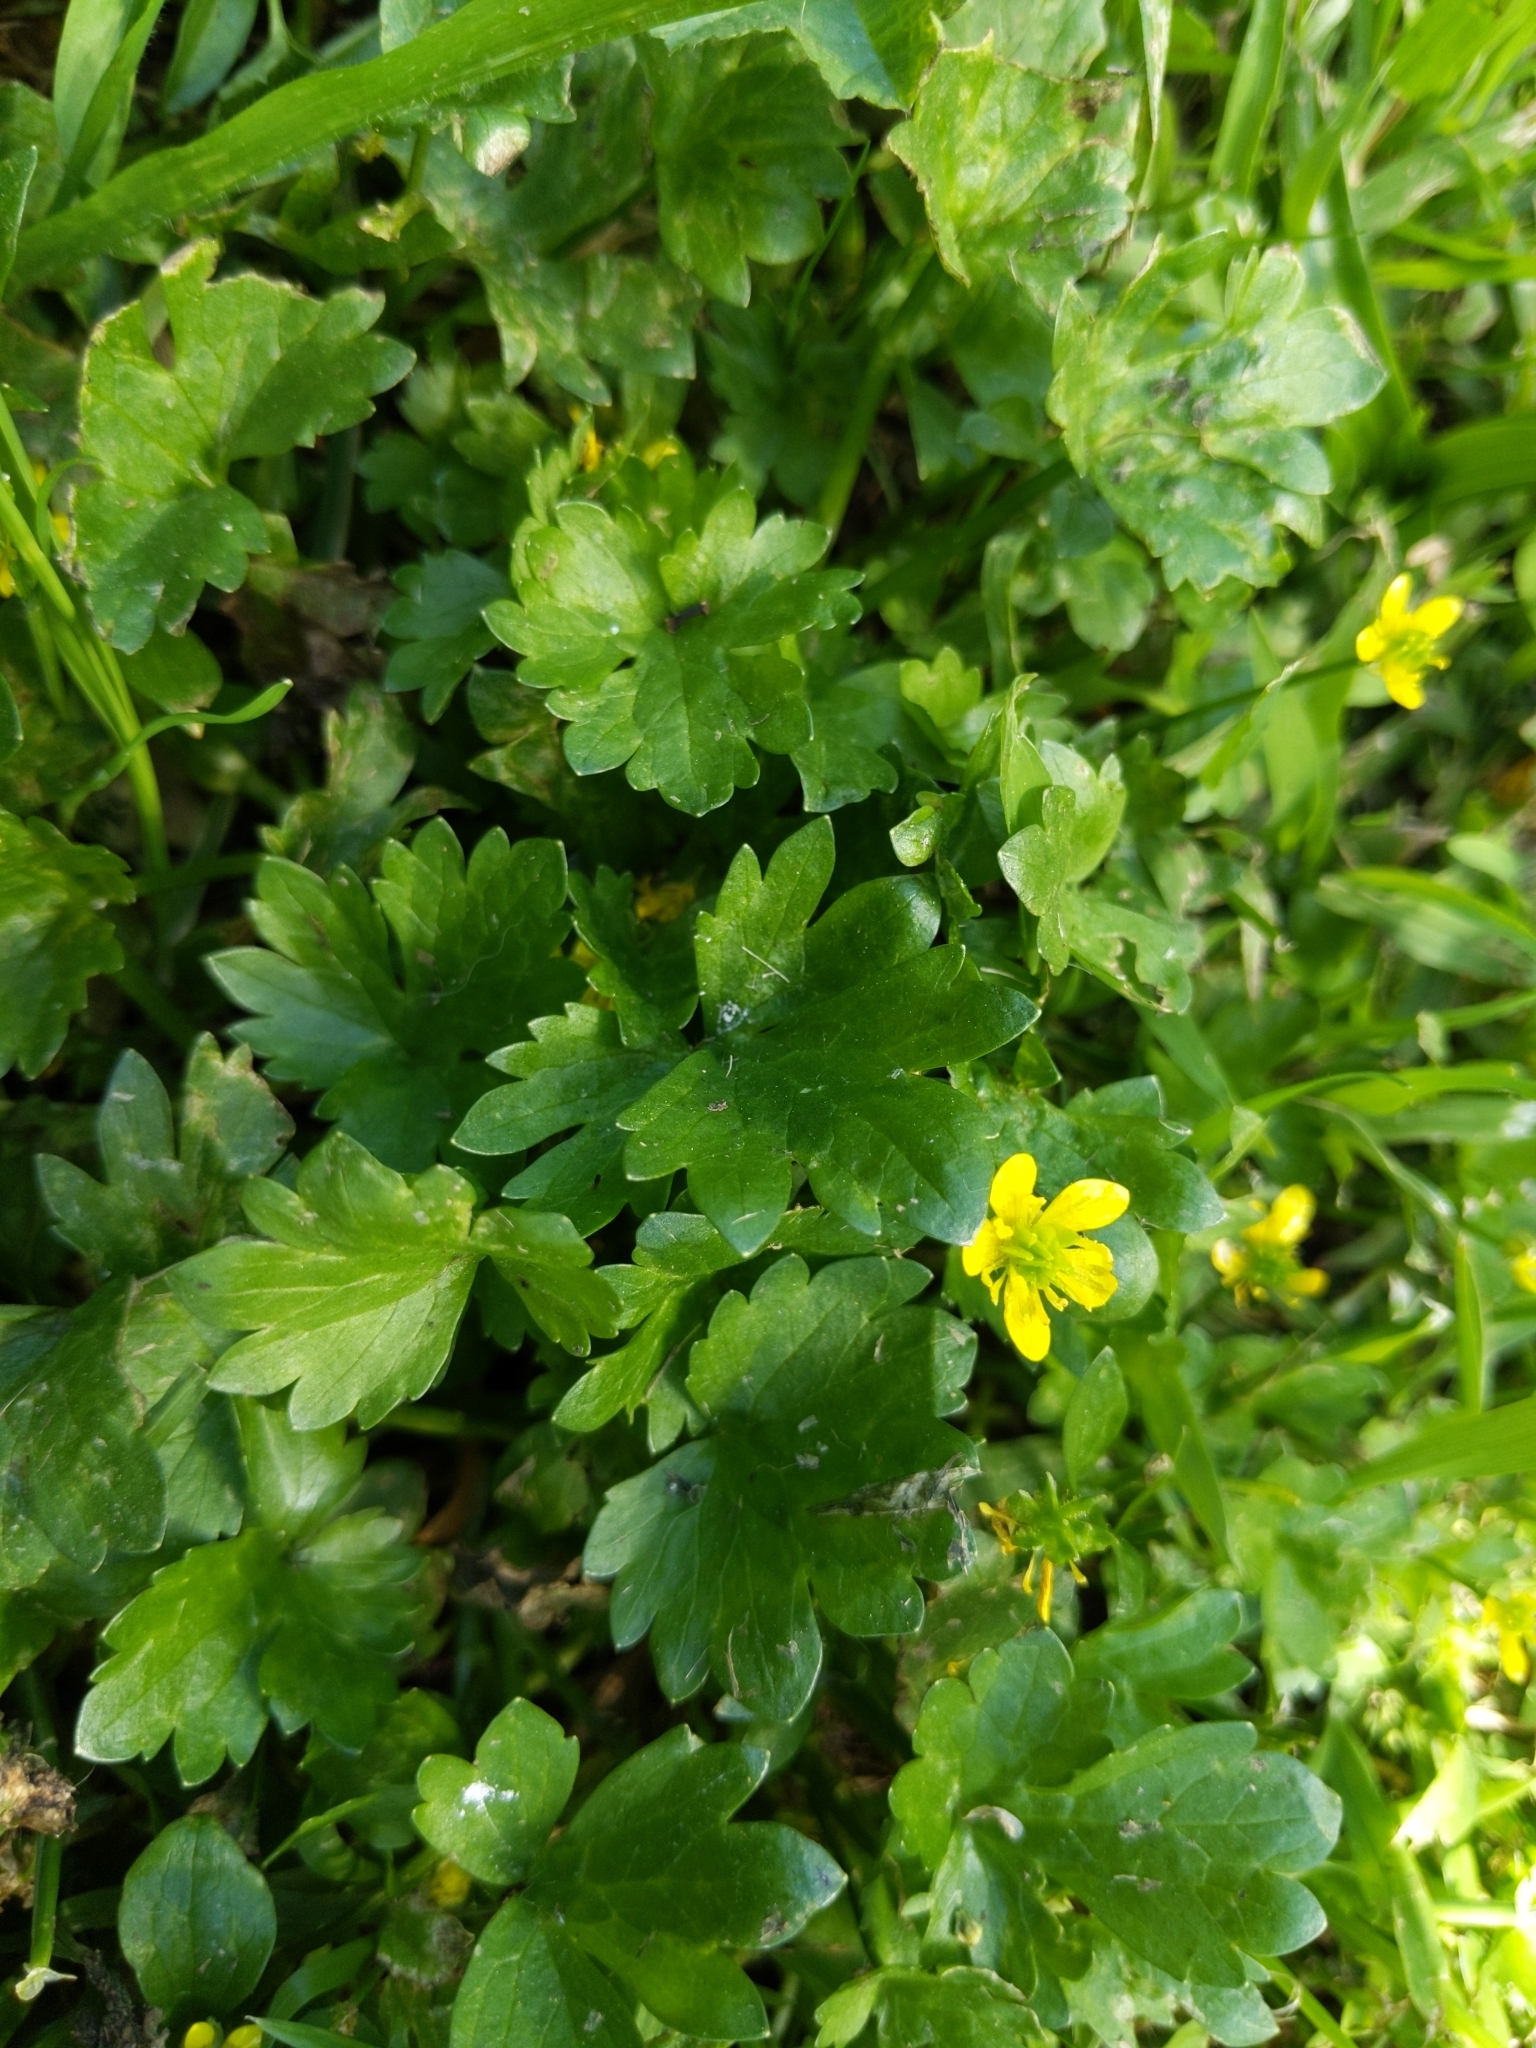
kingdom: Plantae
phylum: Tracheophyta
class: Magnoliopsida
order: Ranunculales
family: Ranunculaceae
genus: Ranunculus
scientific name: Ranunculus muricatus
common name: Rough-fruited buttercup
